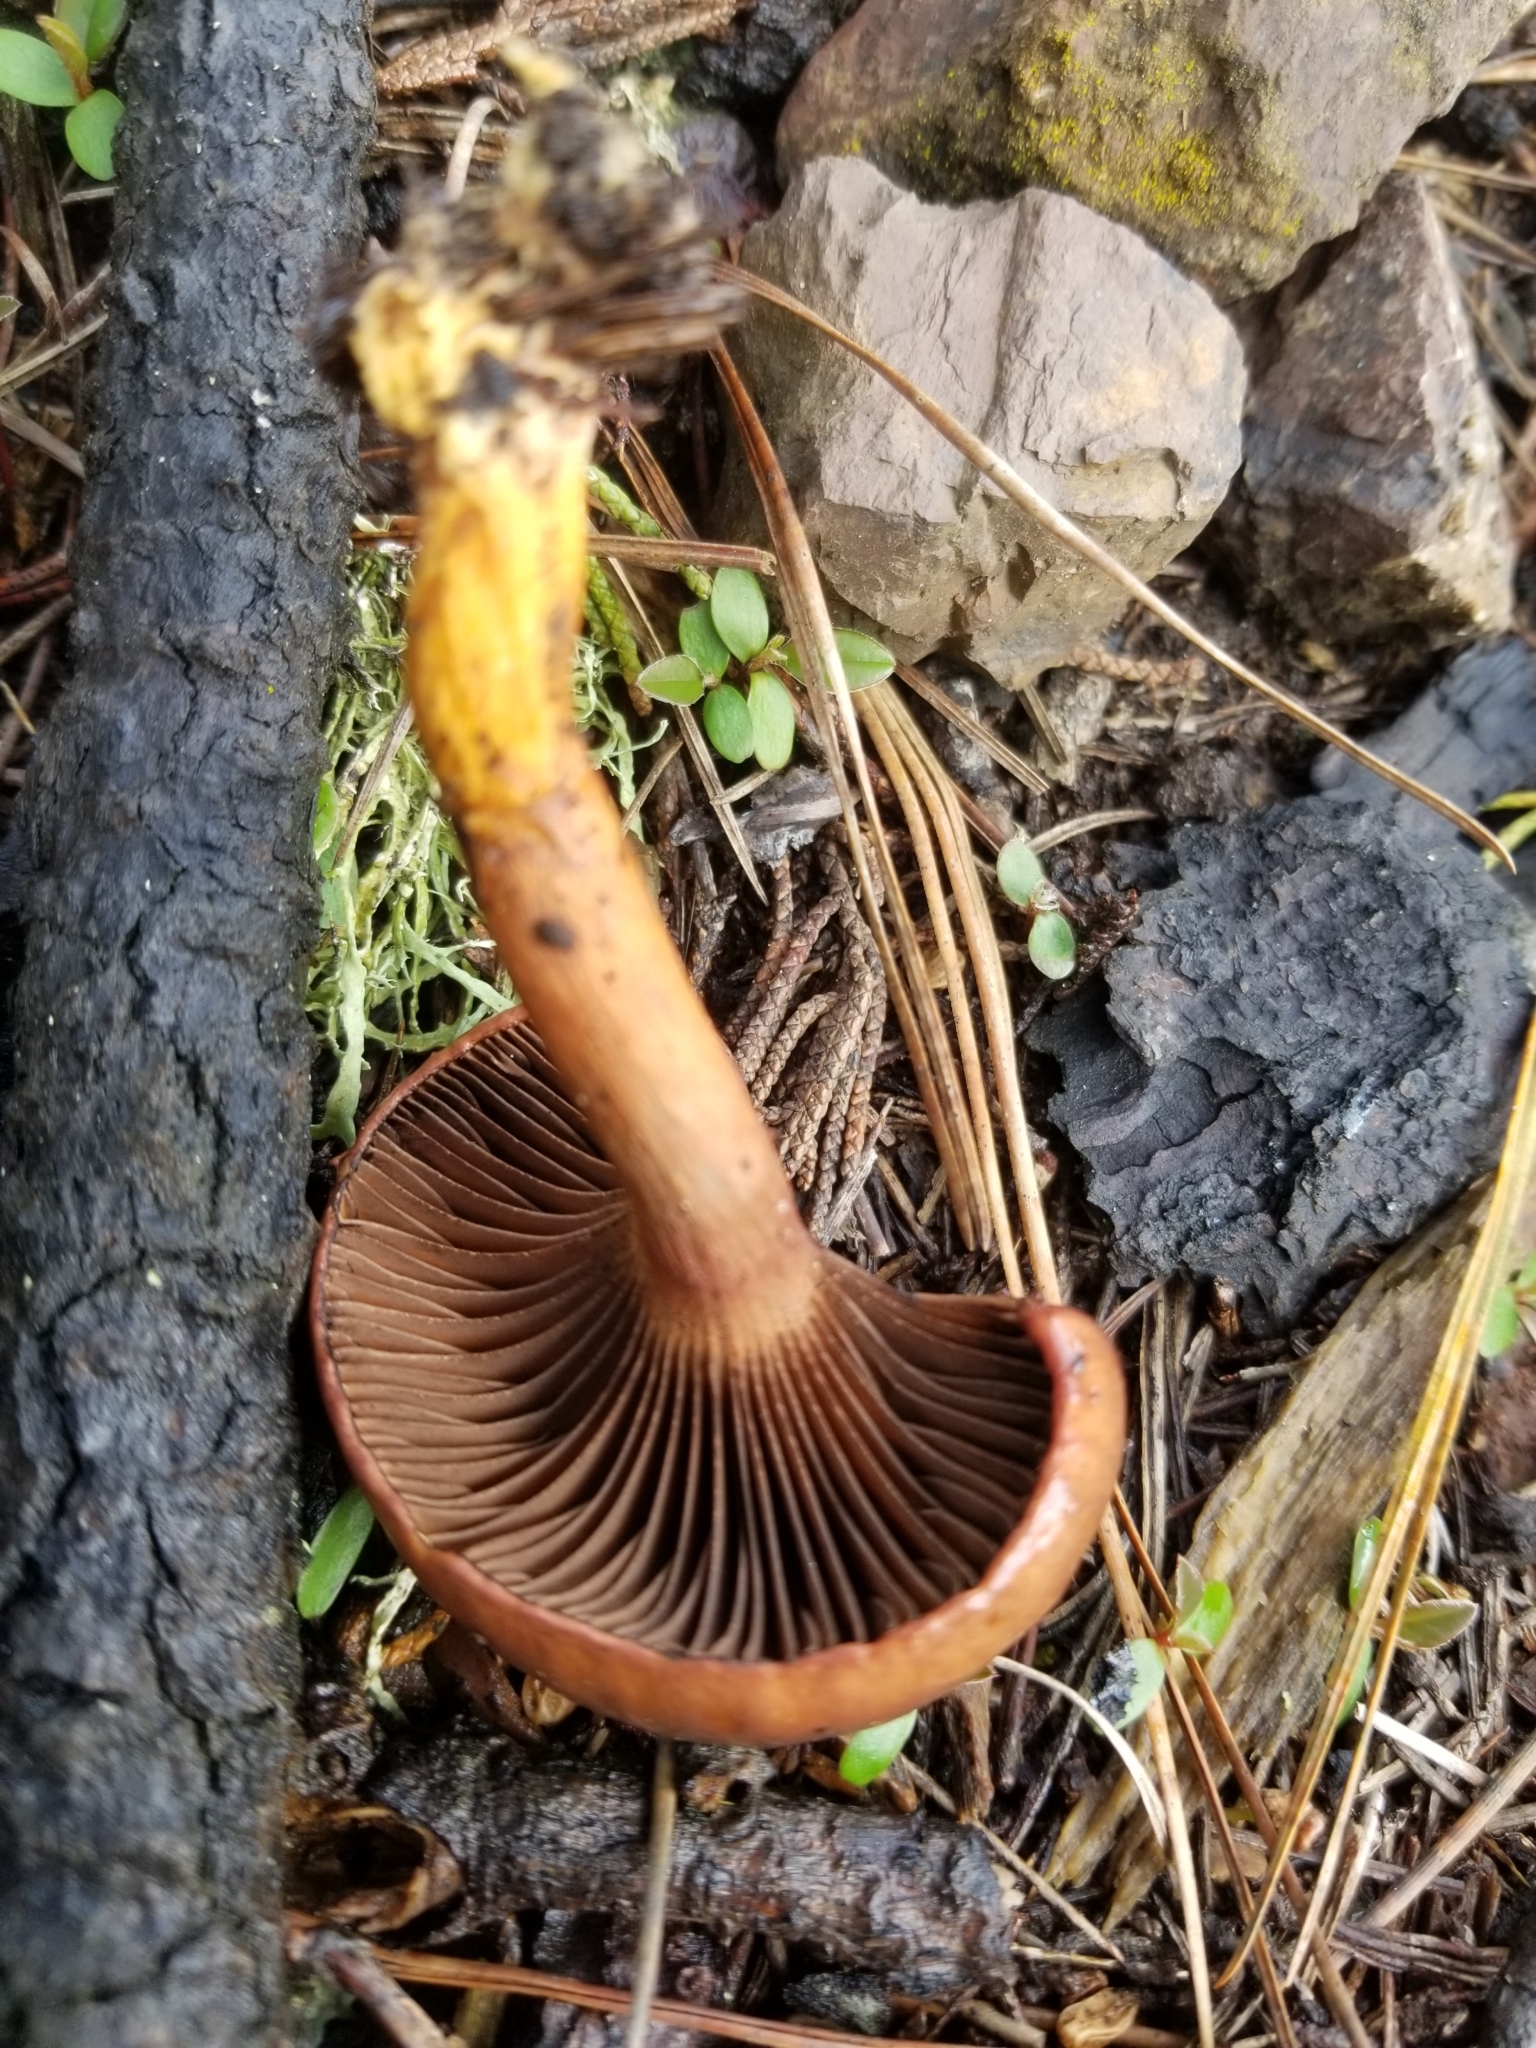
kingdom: Fungi
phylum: Basidiomycota
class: Agaricomycetes
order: Boletales
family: Gomphidiaceae
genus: Chroogomphus
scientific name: Chroogomphus vinicolor
